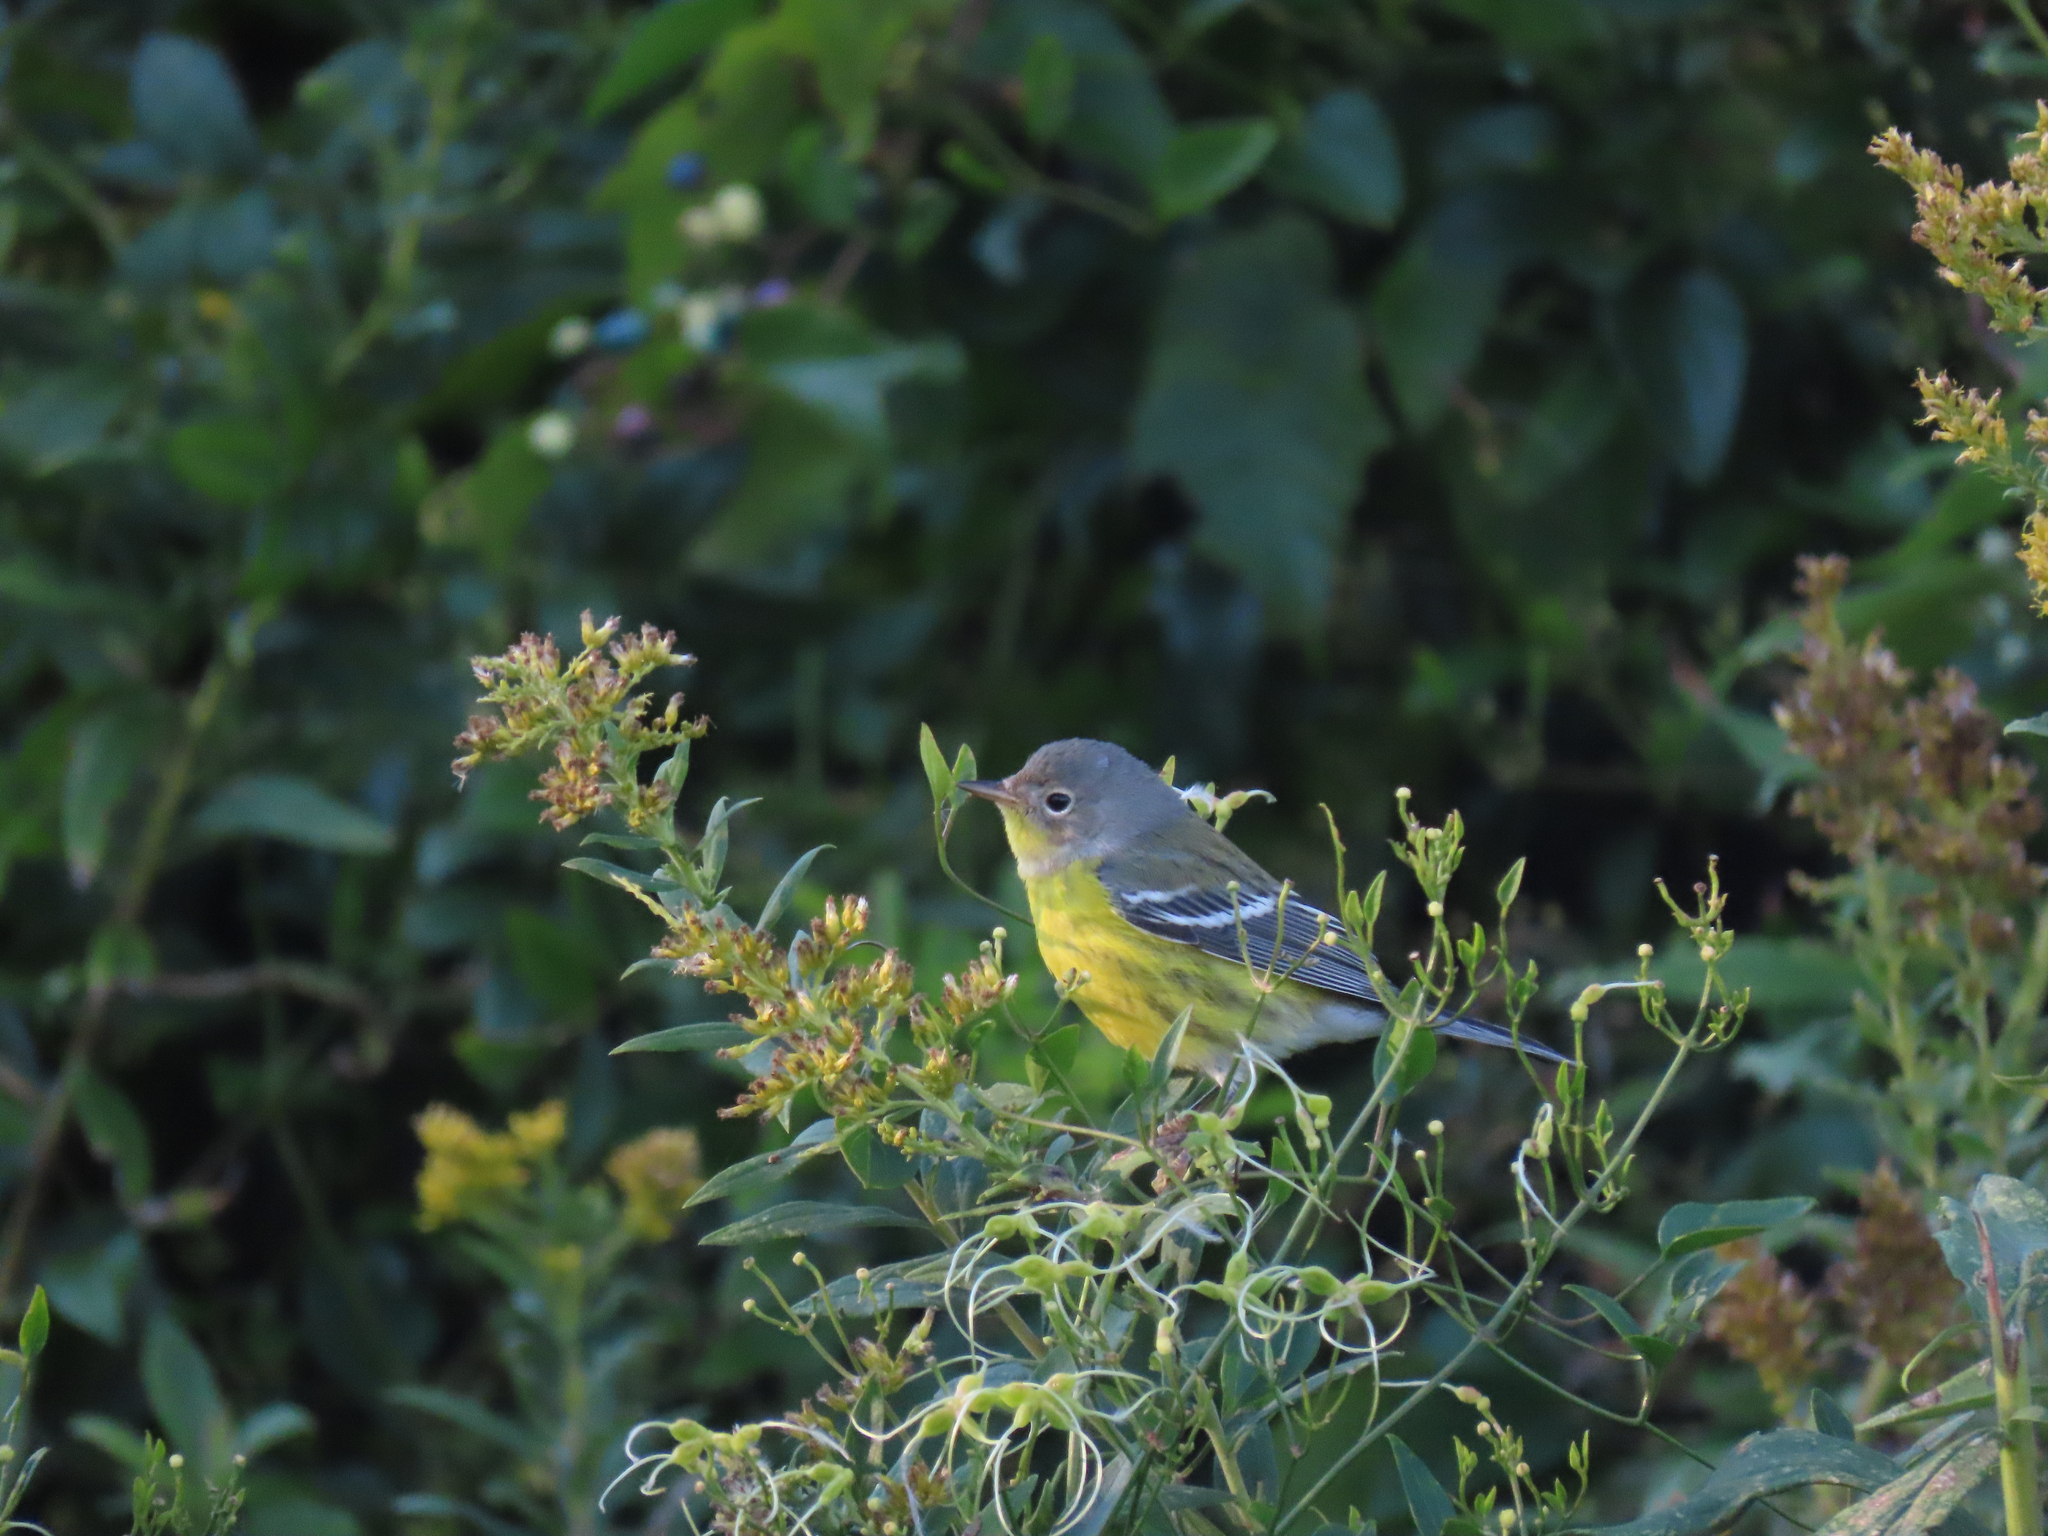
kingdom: Animalia
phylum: Chordata
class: Aves
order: Passeriformes
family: Parulidae
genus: Setophaga
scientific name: Setophaga magnolia
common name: Magnolia warbler
